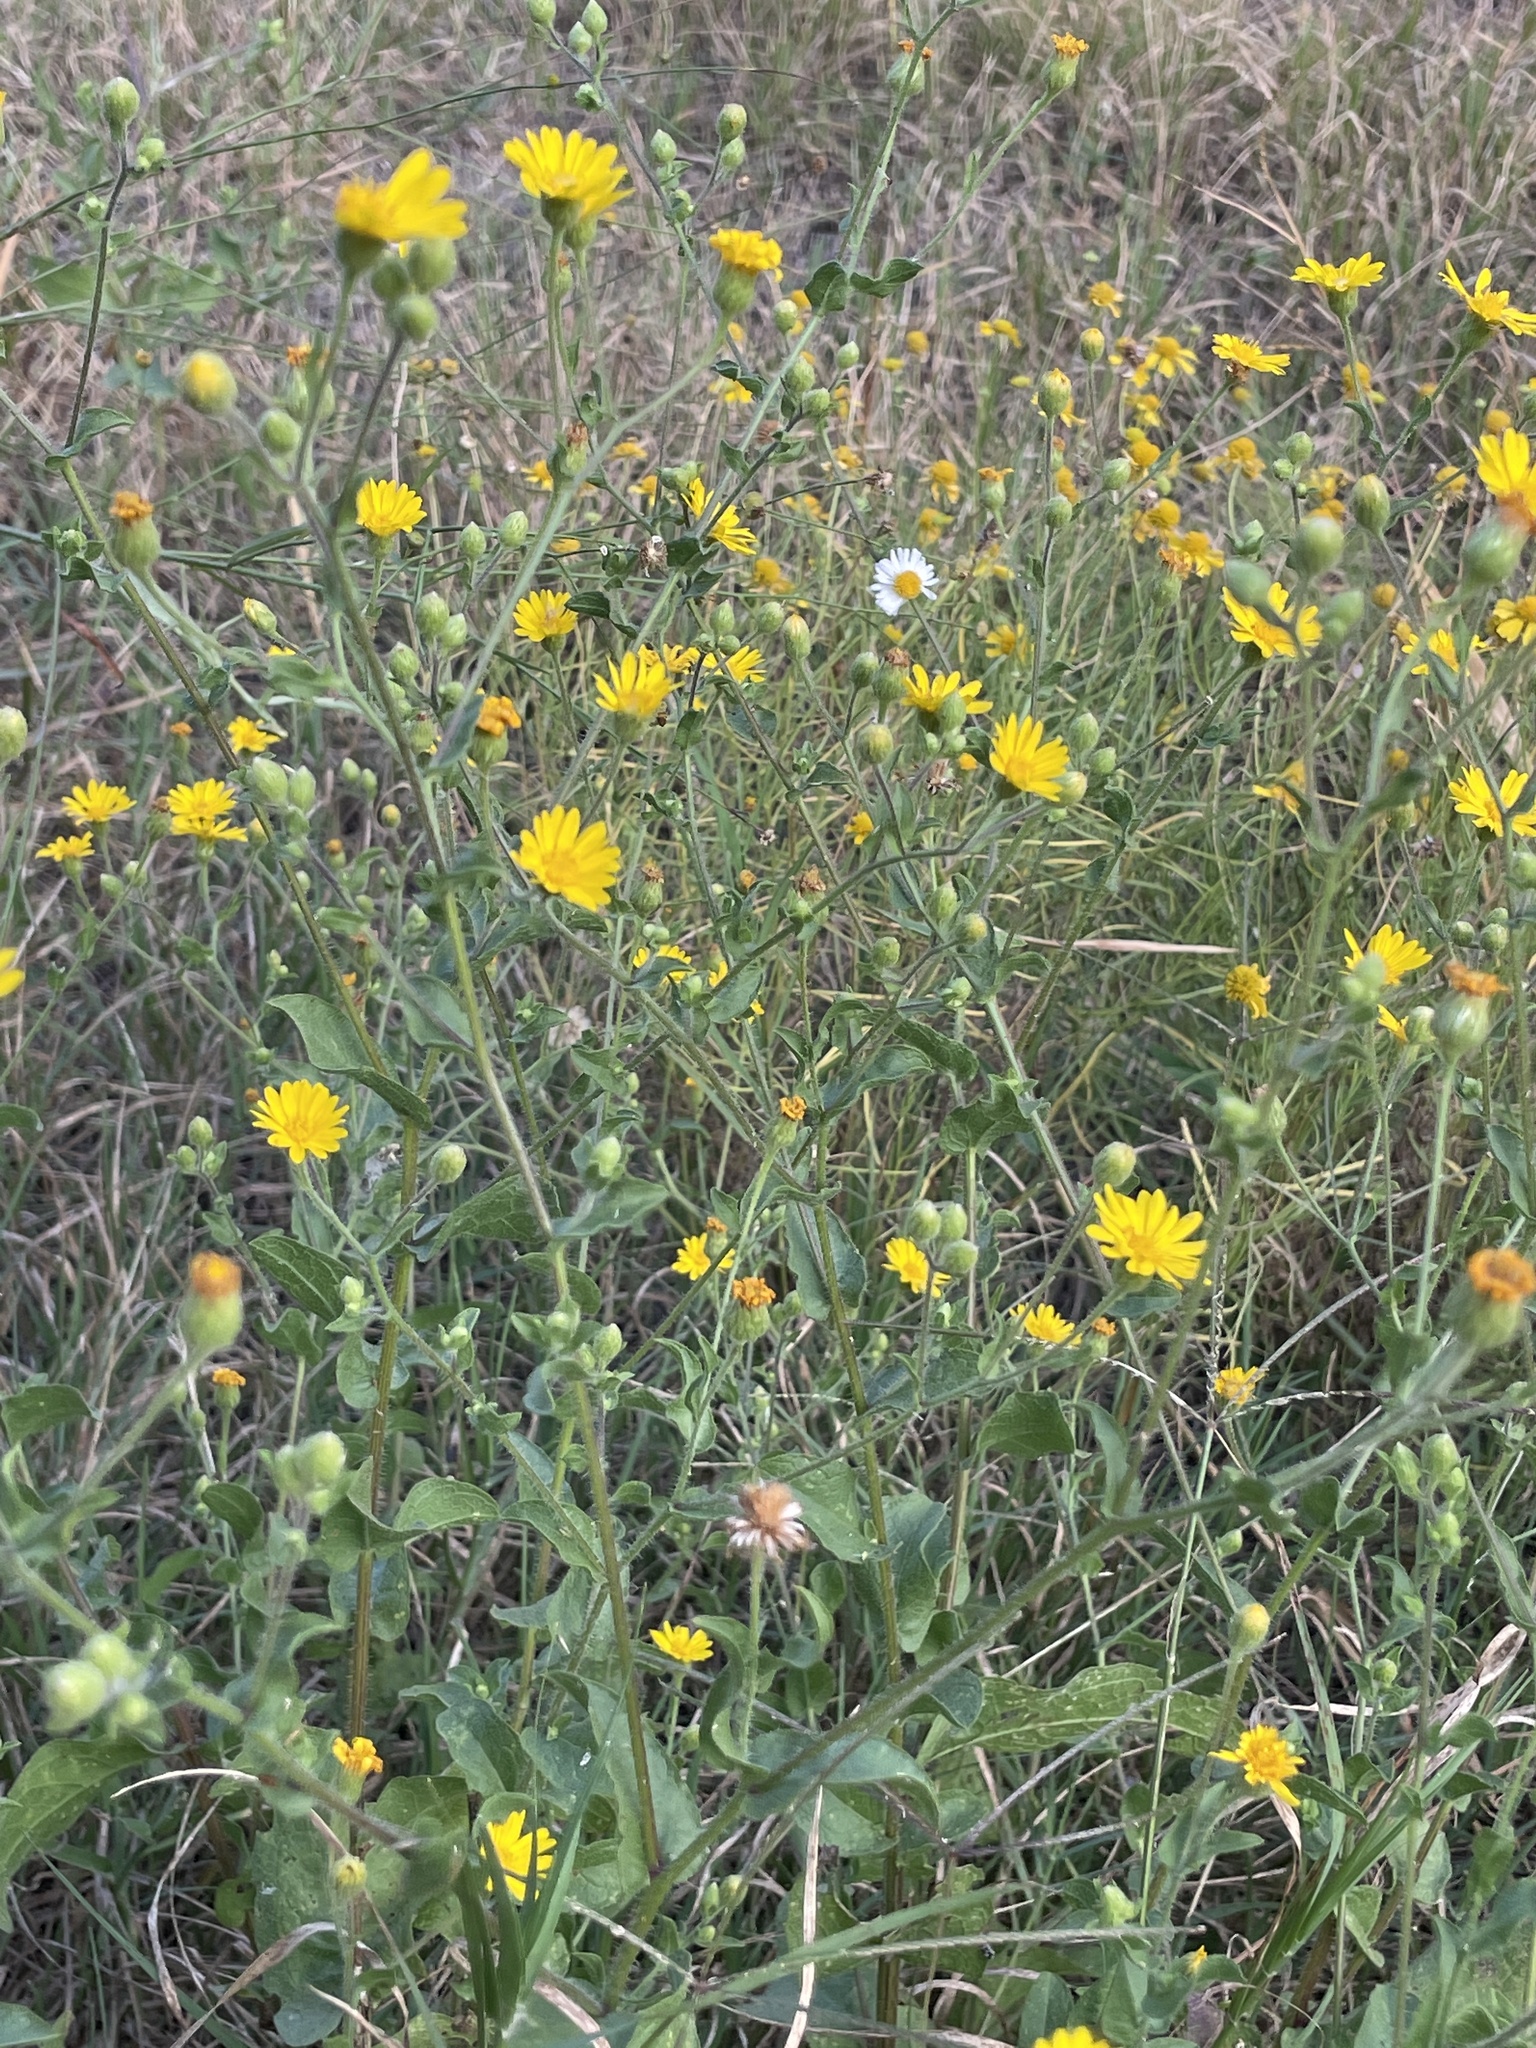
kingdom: Plantae
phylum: Tracheophyta
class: Magnoliopsida
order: Asterales
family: Asteraceae
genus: Heterotheca
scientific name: Heterotheca subaxillaris
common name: Camphorweed
